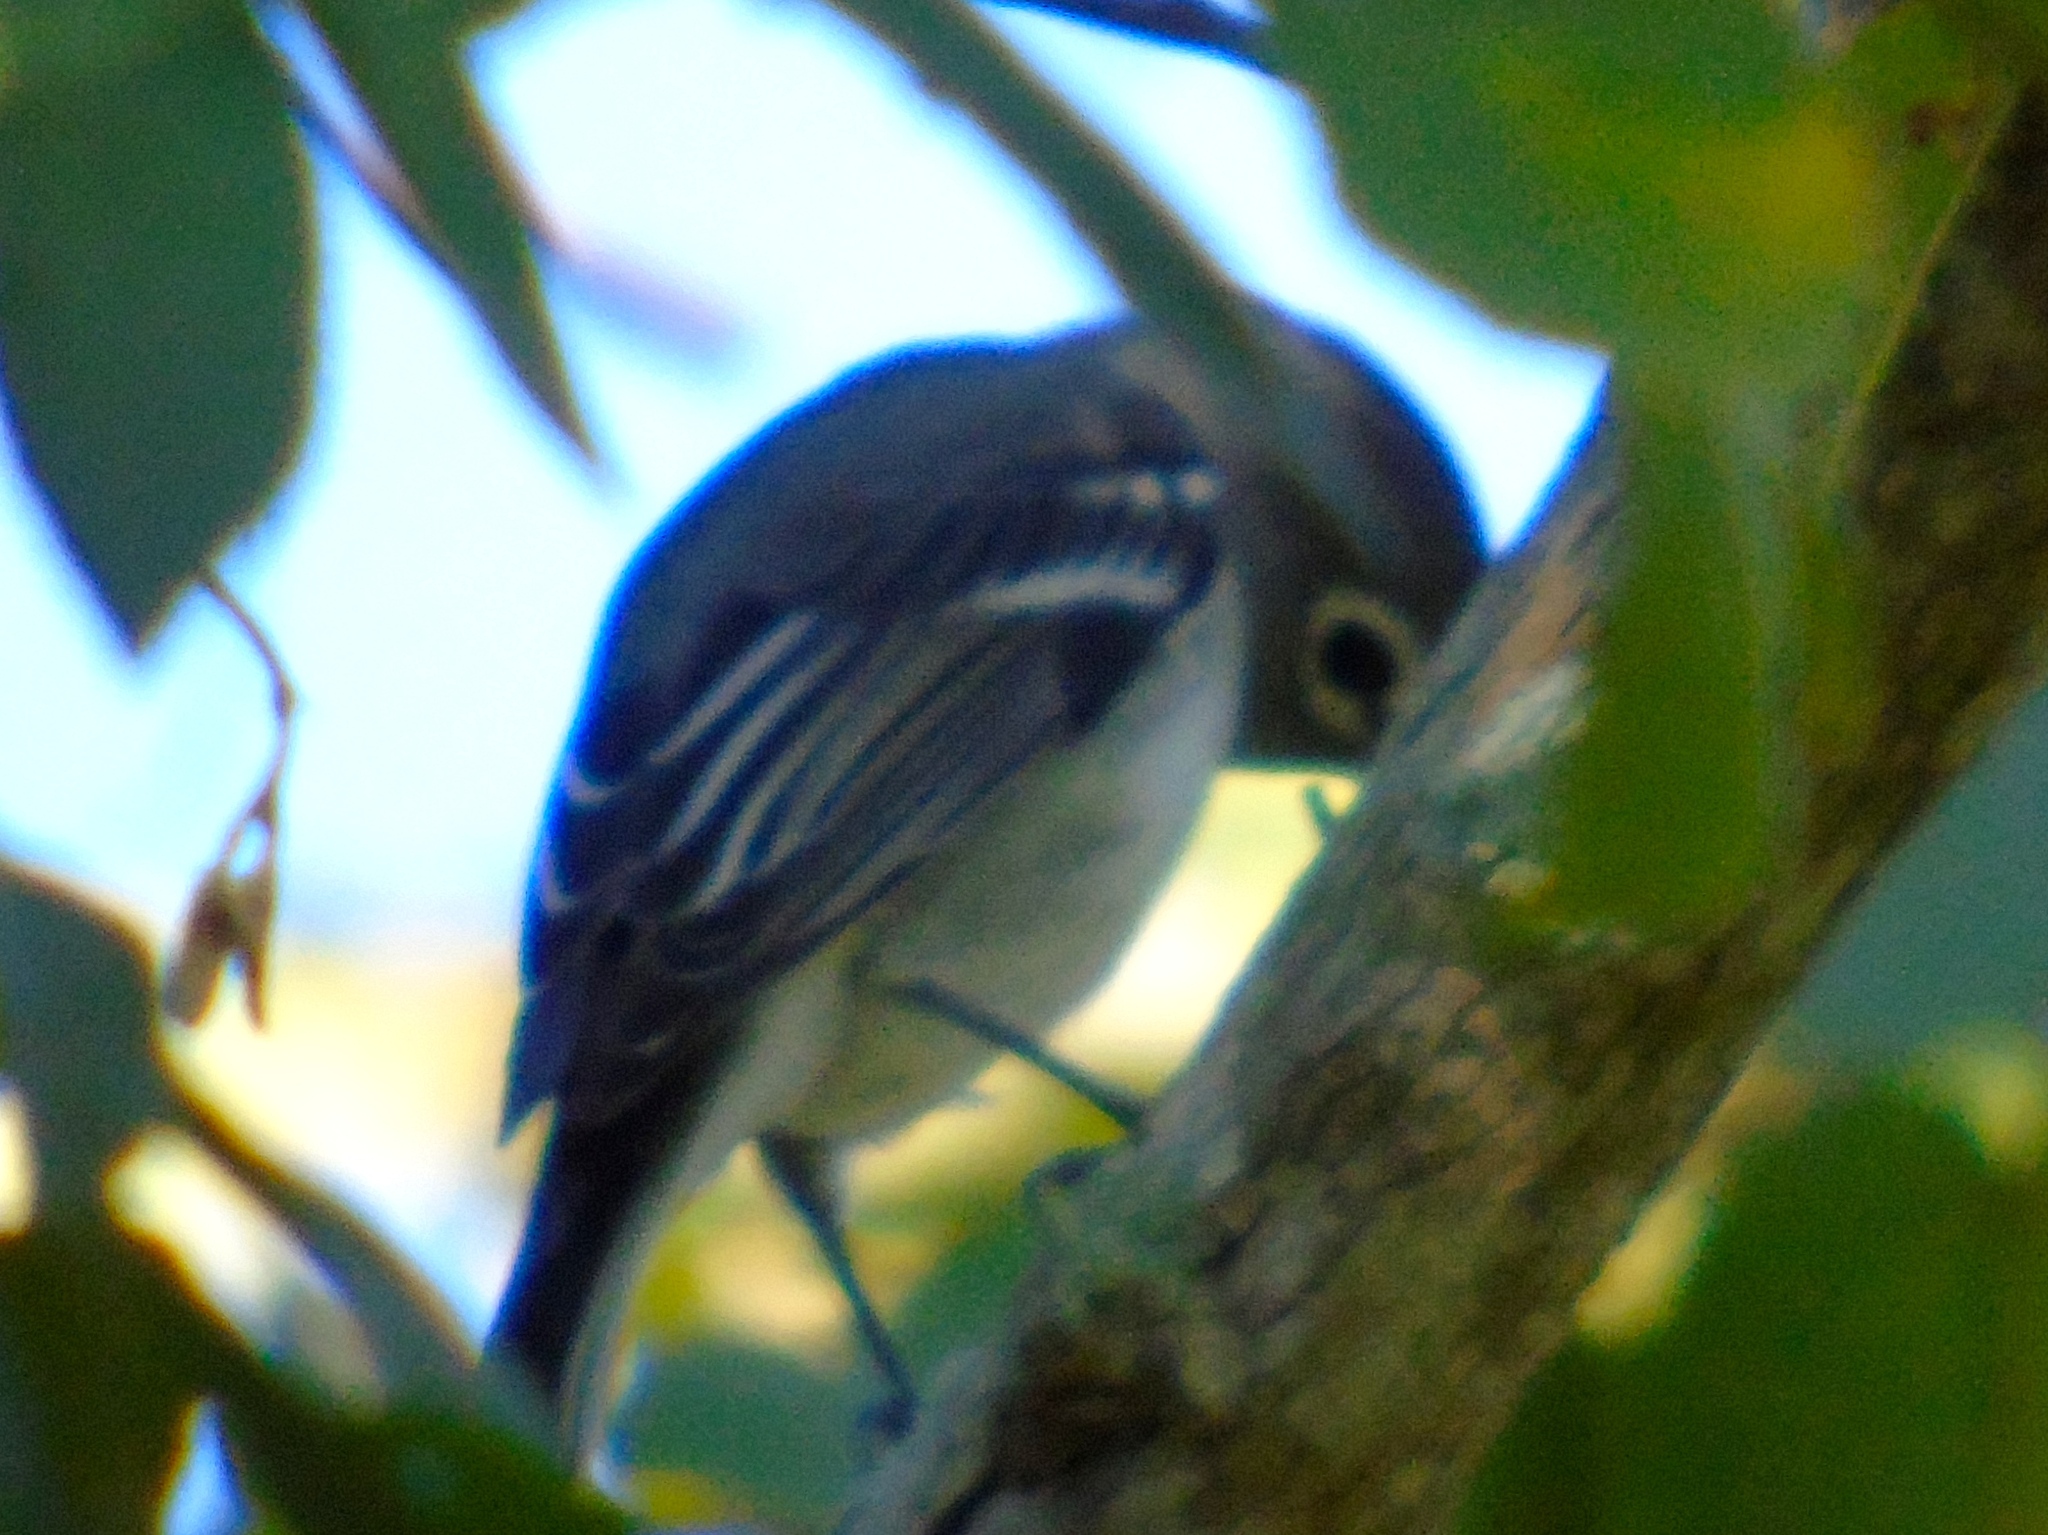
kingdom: Animalia
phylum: Chordata
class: Aves
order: Passeriformes
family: Vireonidae
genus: Vireo
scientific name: Vireo cassinii
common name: Cassin's vireo
